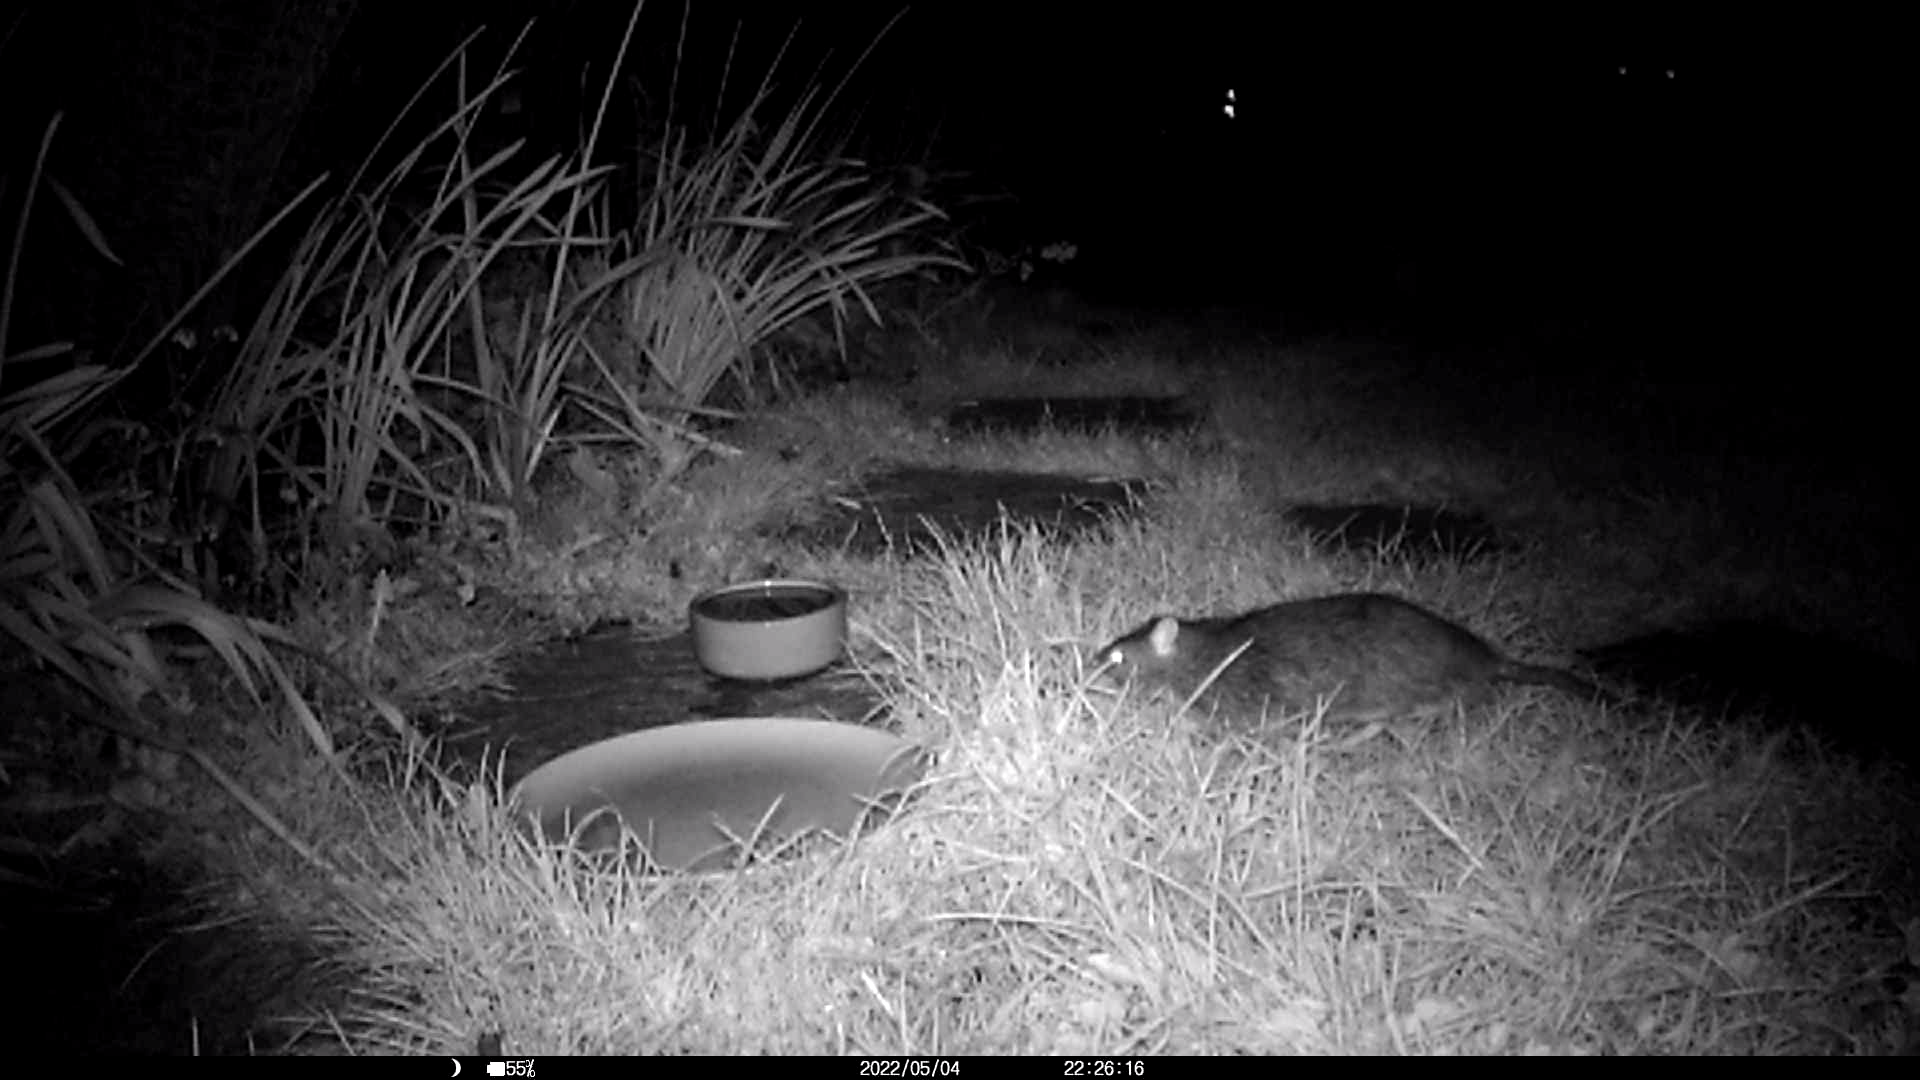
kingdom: Animalia
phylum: Chordata
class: Mammalia
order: Rodentia
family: Muridae
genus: Rattus
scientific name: Rattus norvegicus
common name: Brown rat
